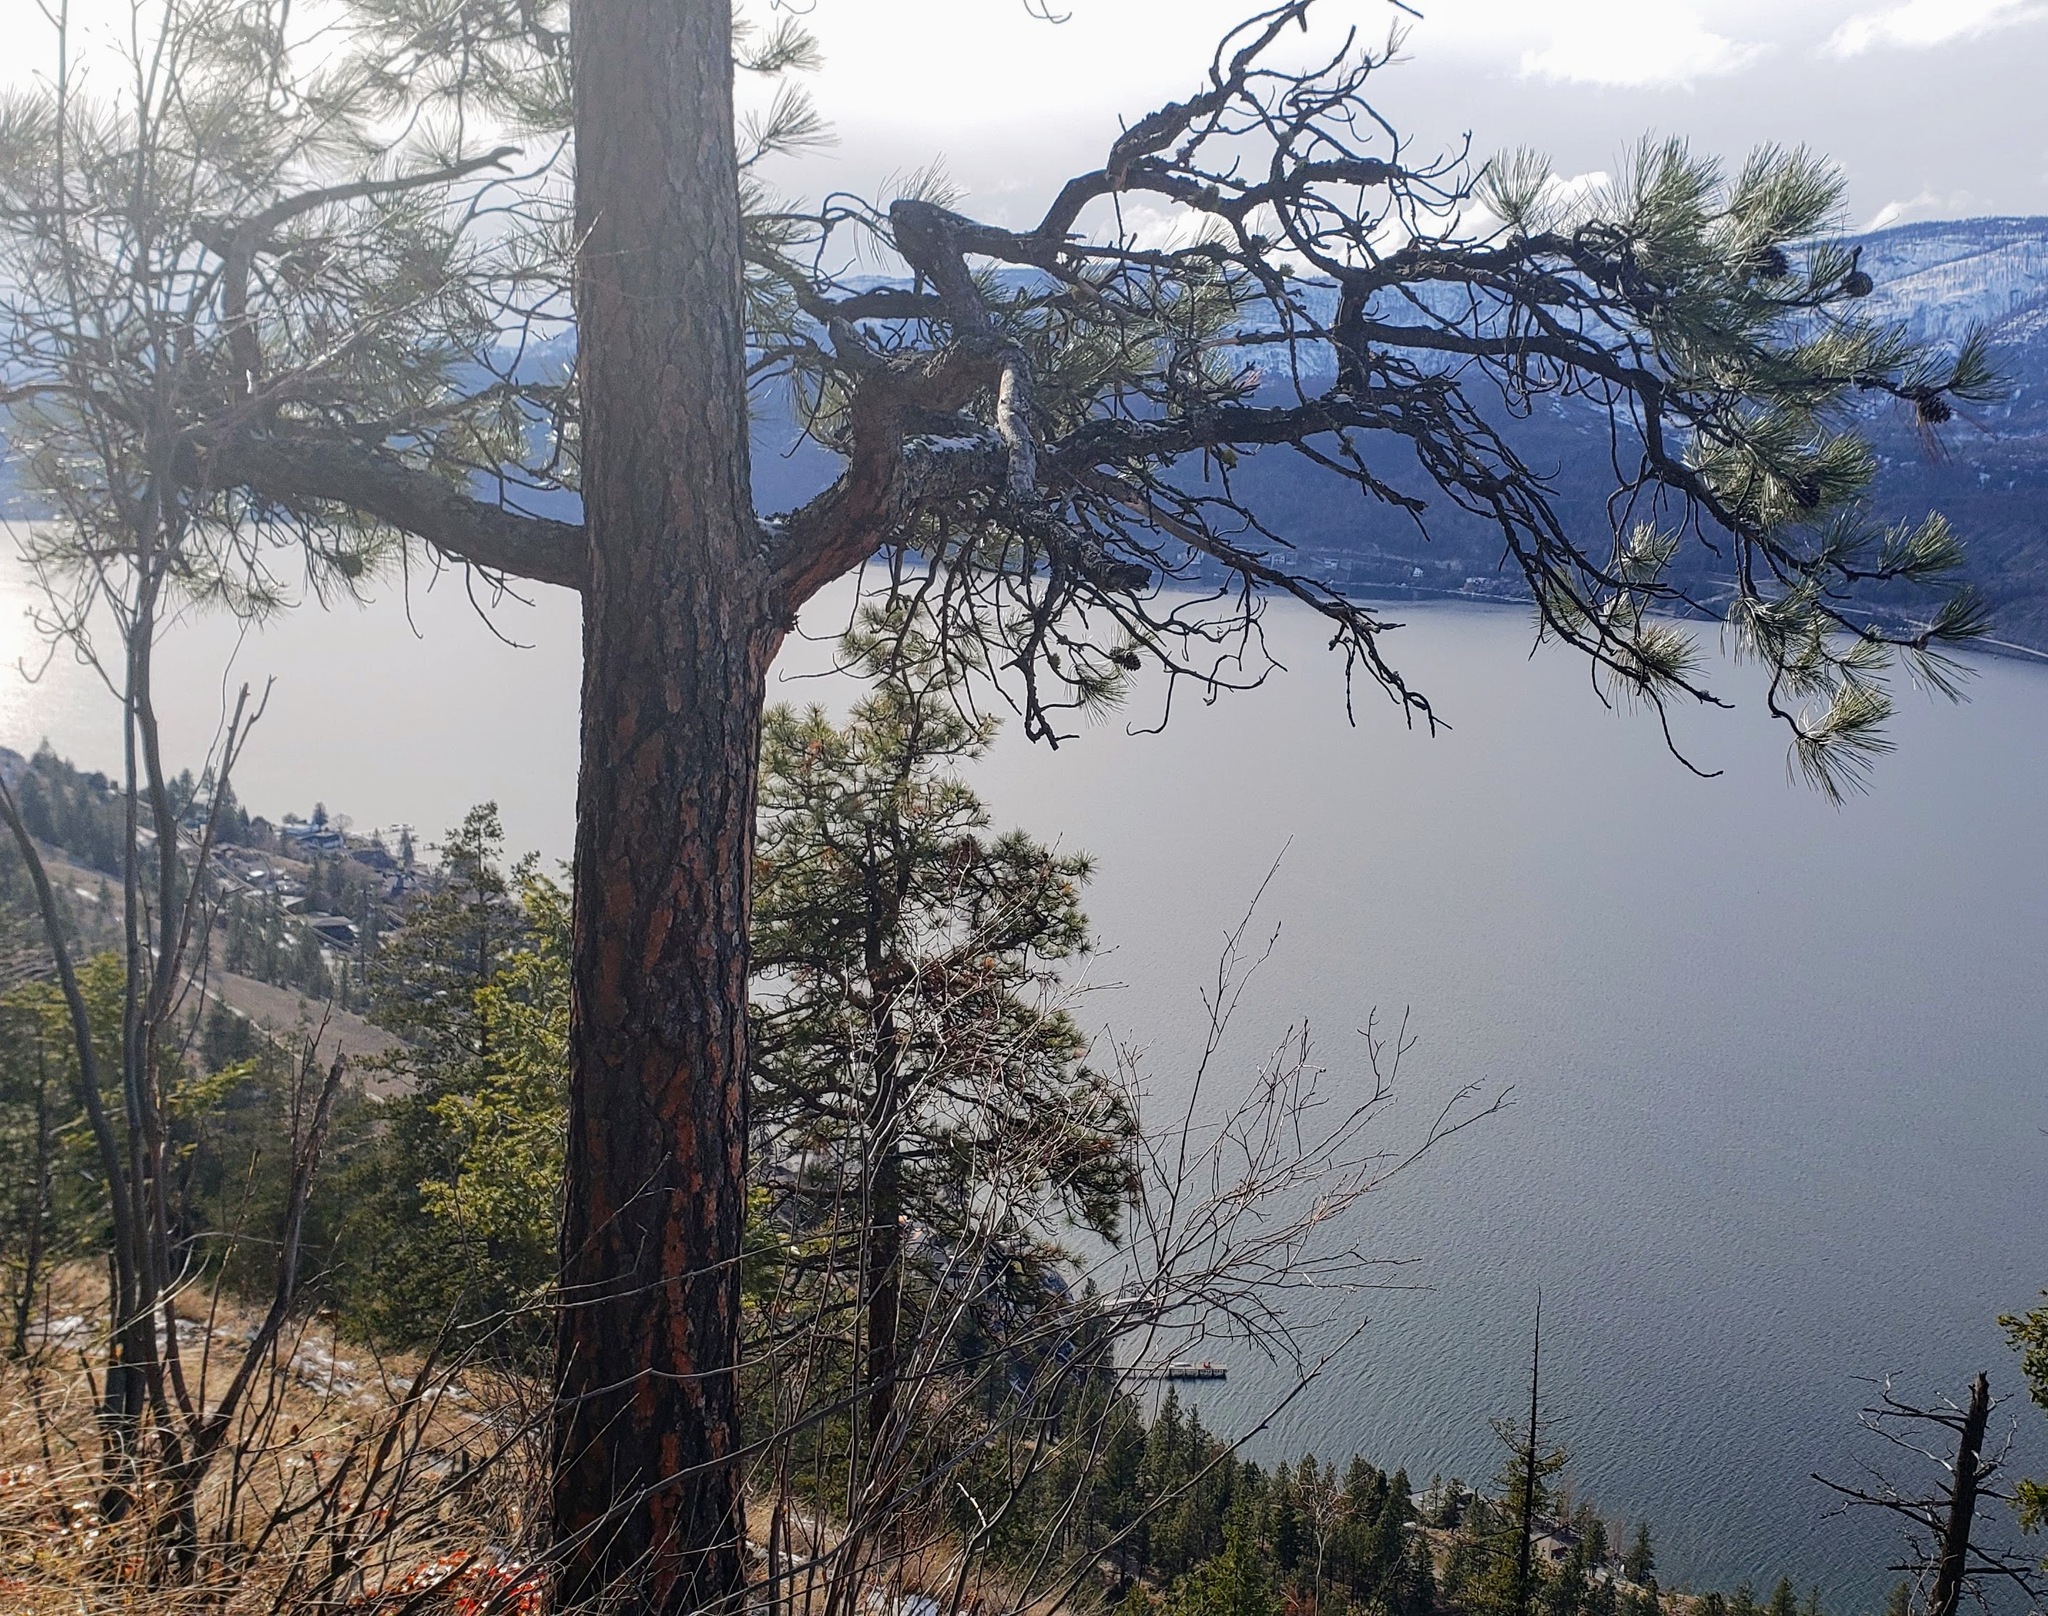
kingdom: Plantae
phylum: Tracheophyta
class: Pinopsida
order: Pinales
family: Pinaceae
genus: Pinus
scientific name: Pinus ponderosa
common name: Western yellow-pine
